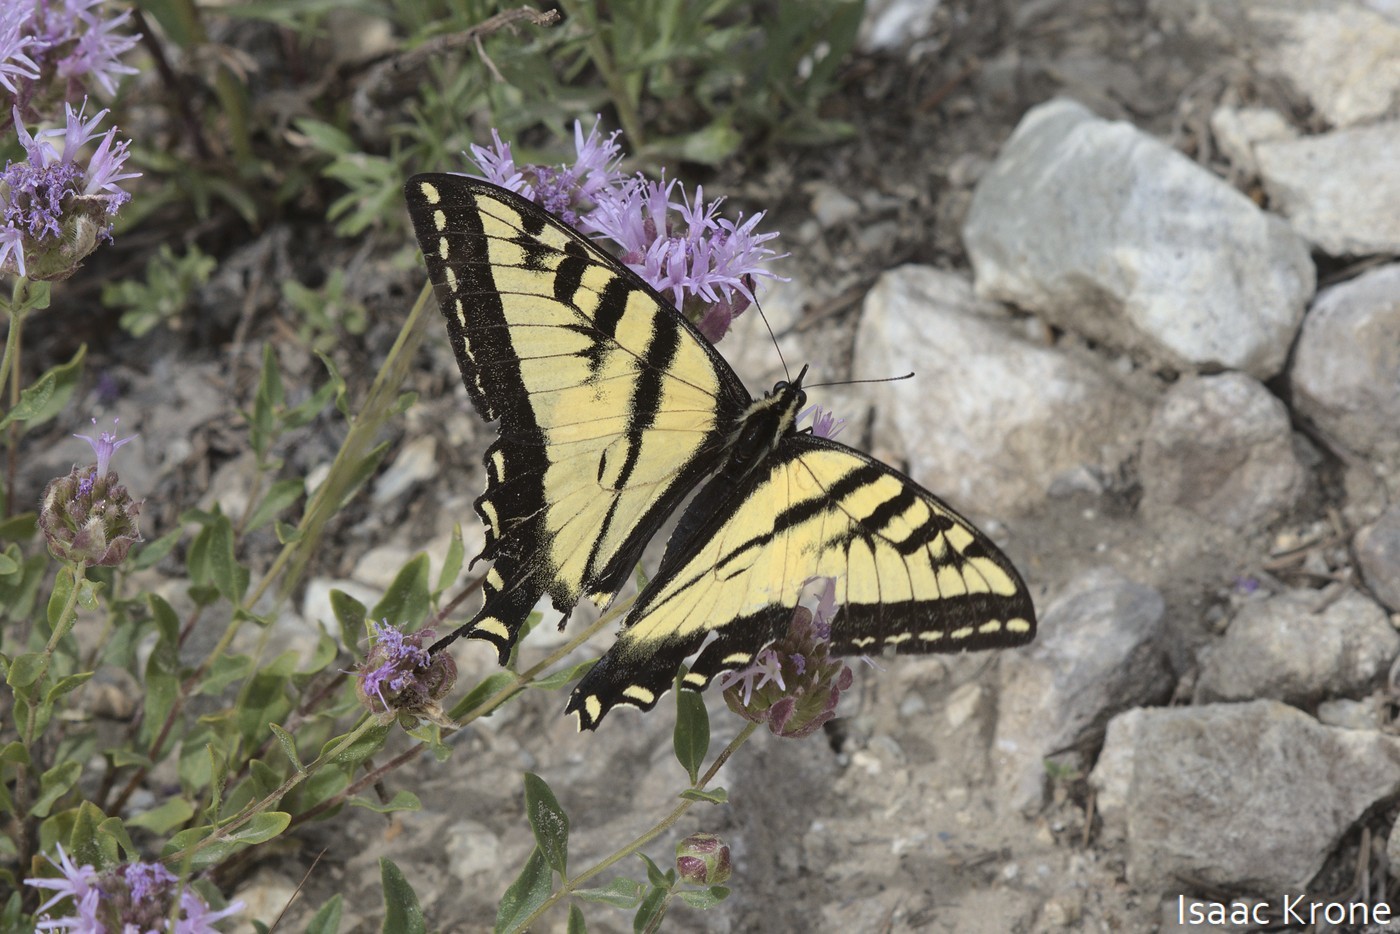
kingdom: Animalia
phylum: Arthropoda
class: Insecta
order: Lepidoptera
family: Papilionidae
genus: Papilio
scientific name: Papilio rutulus
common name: Western tiger swallowtail
